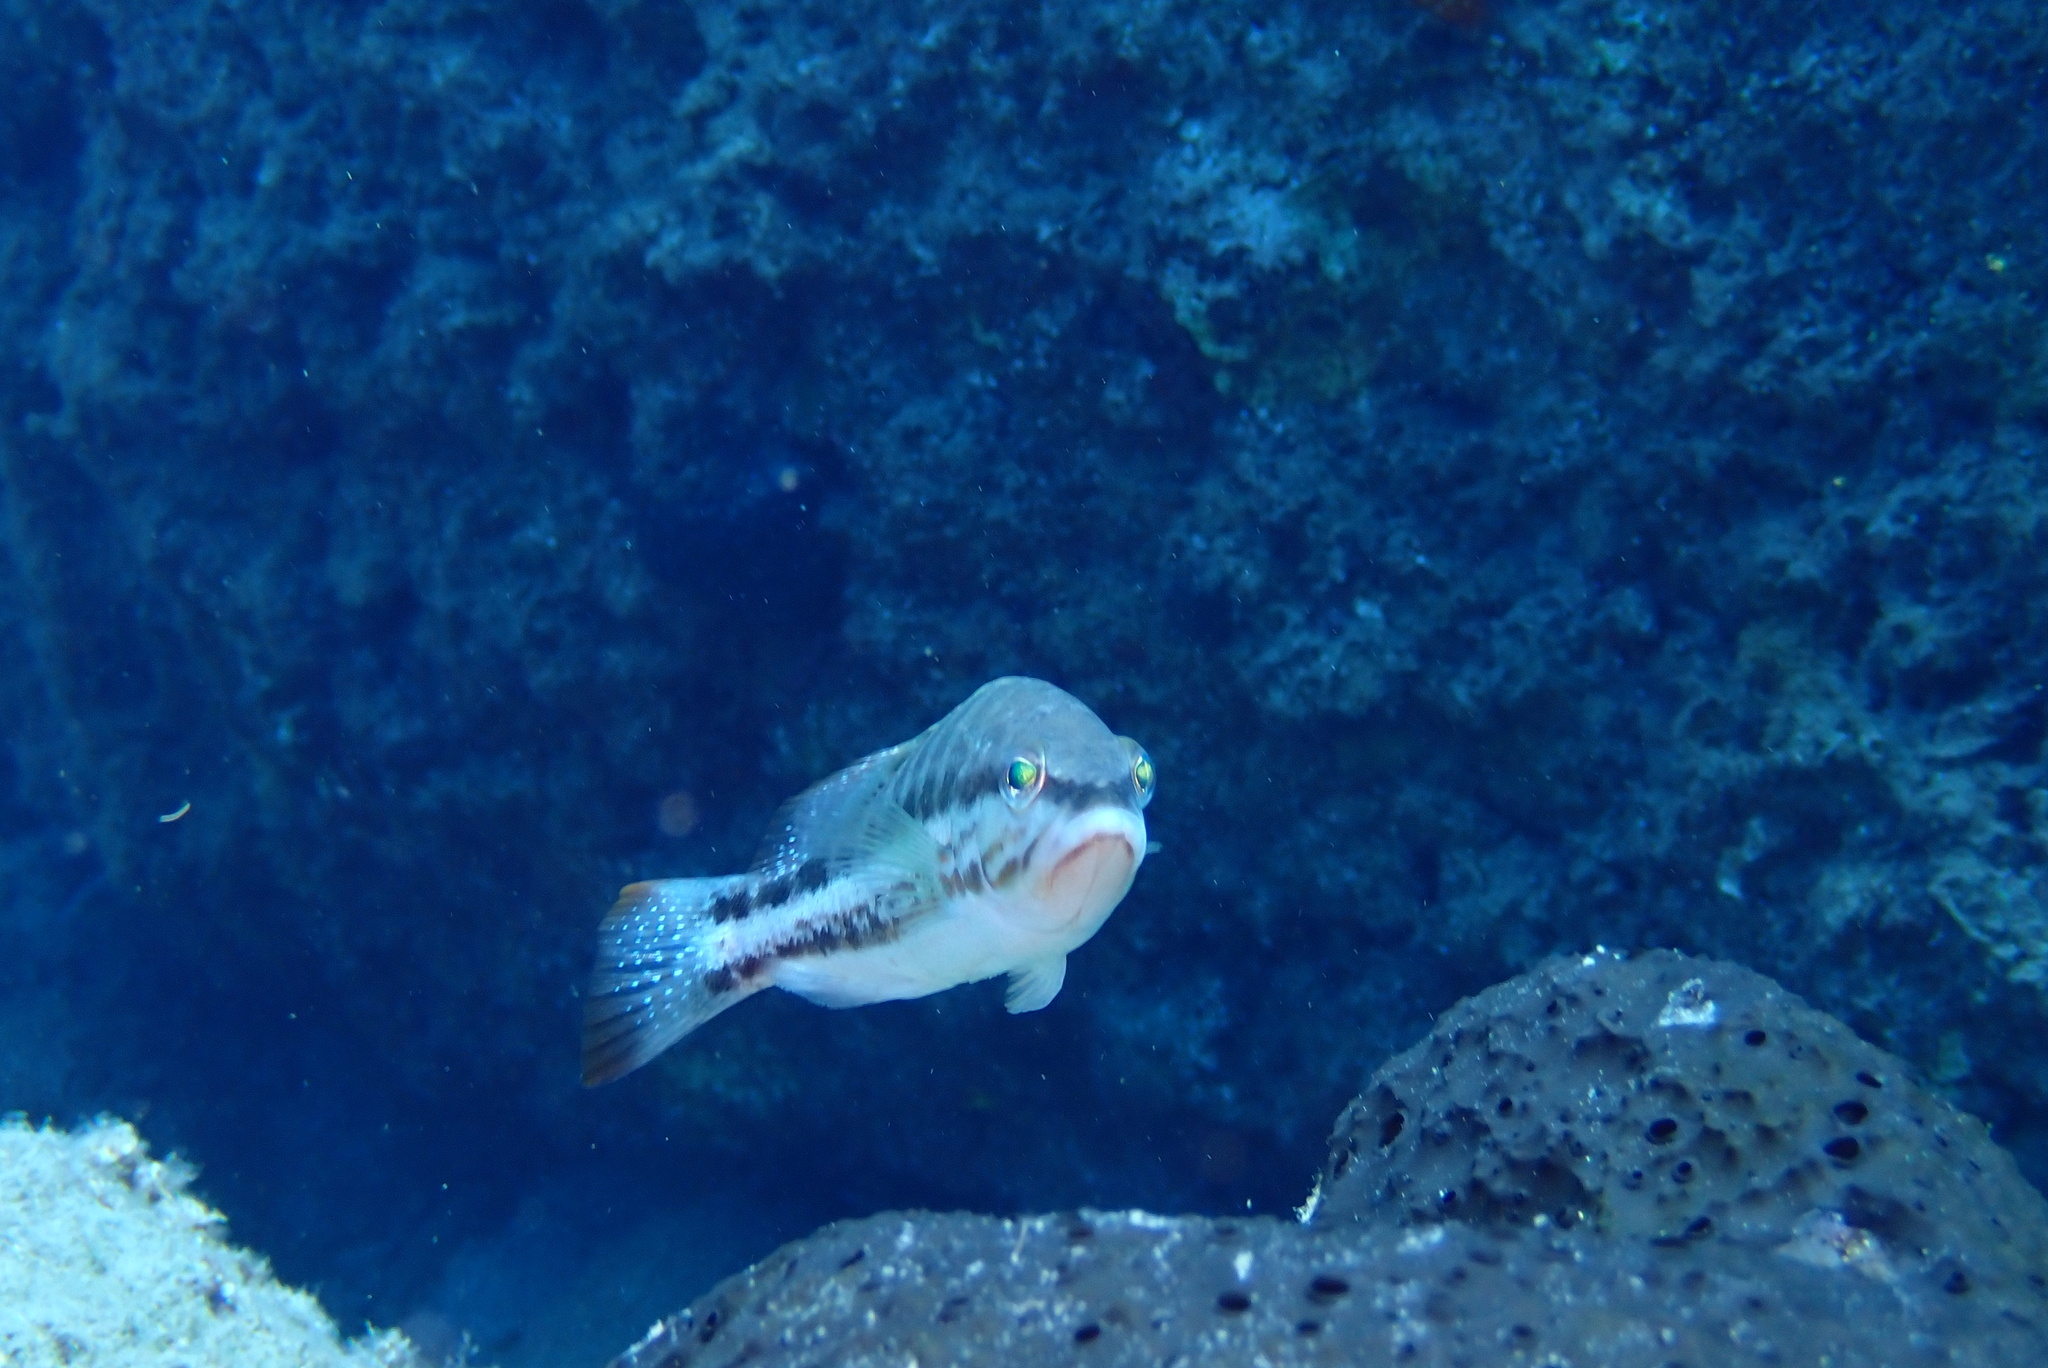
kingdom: Animalia
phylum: Chordata
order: Perciformes
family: Serranidae
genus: Serranus
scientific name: Serranus cabrilla
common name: Comber
